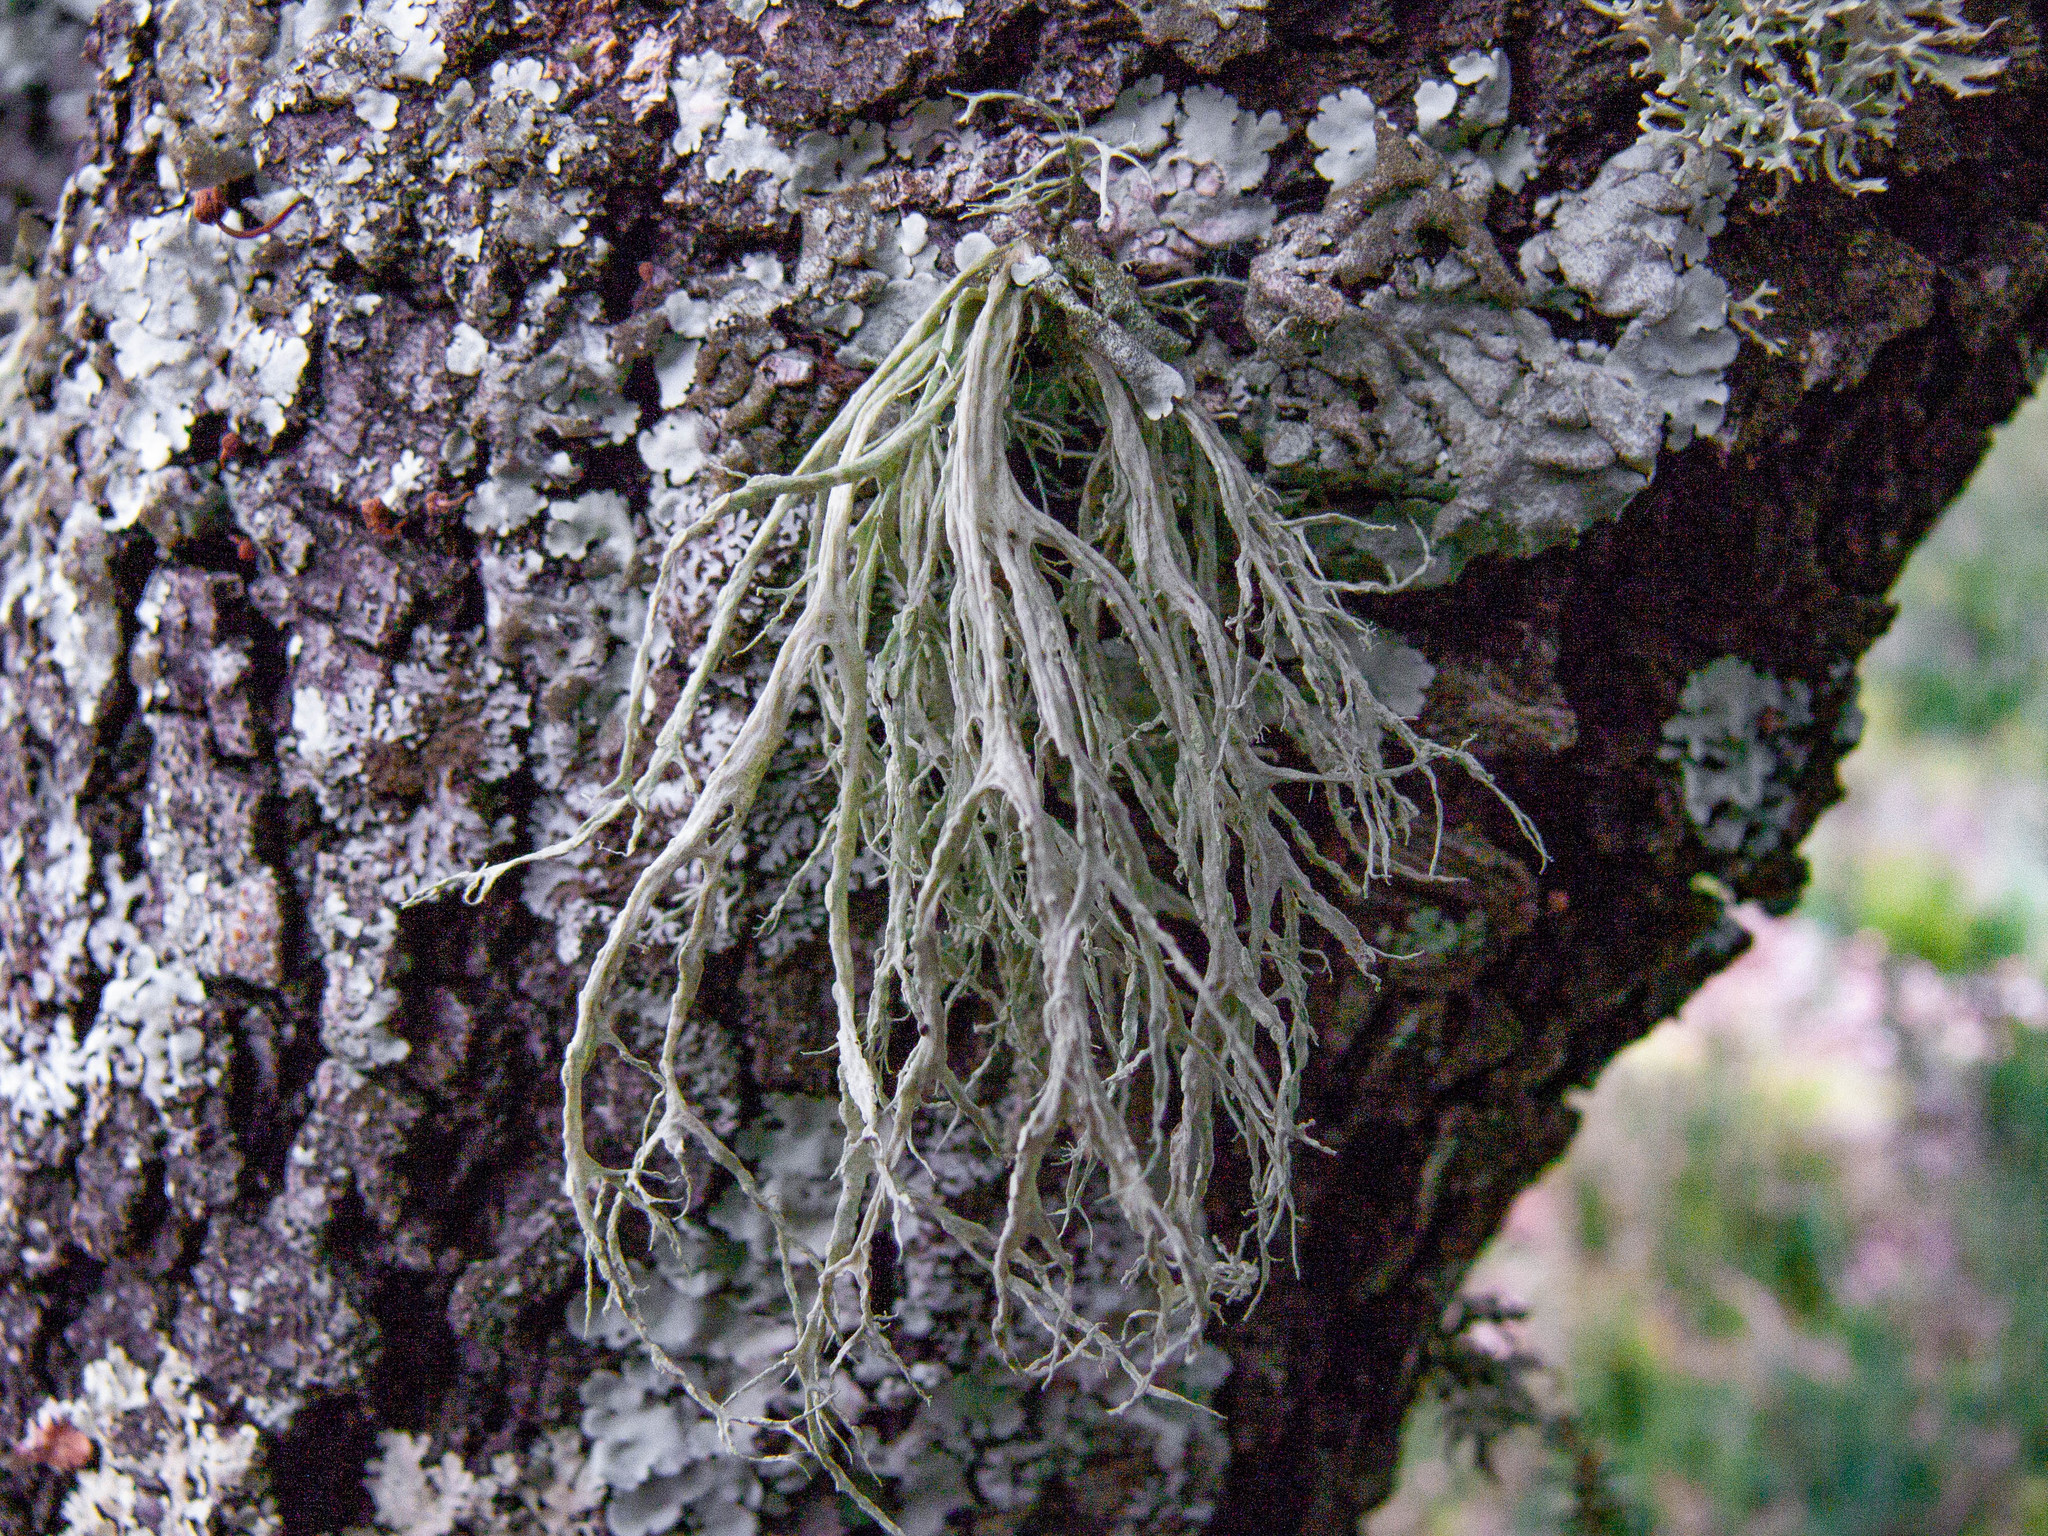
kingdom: Fungi
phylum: Ascomycota
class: Lecanoromycetes
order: Lecanorales
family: Ramalinaceae
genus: Ramalina
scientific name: Ramalina farinacea
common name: Farinose cartilage lichen
